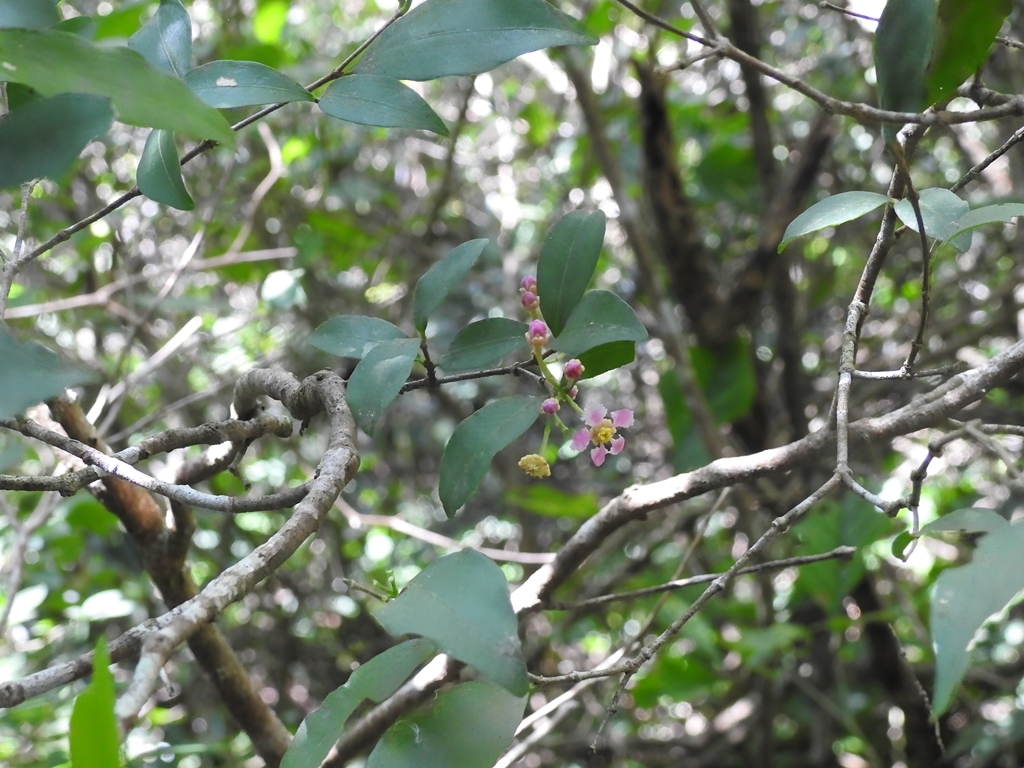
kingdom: Plantae
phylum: Tracheophyta
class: Magnoliopsida
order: Malpighiales
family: Malpighiaceae
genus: Malpighia
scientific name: Malpighia glabra
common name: Barbados cherry
